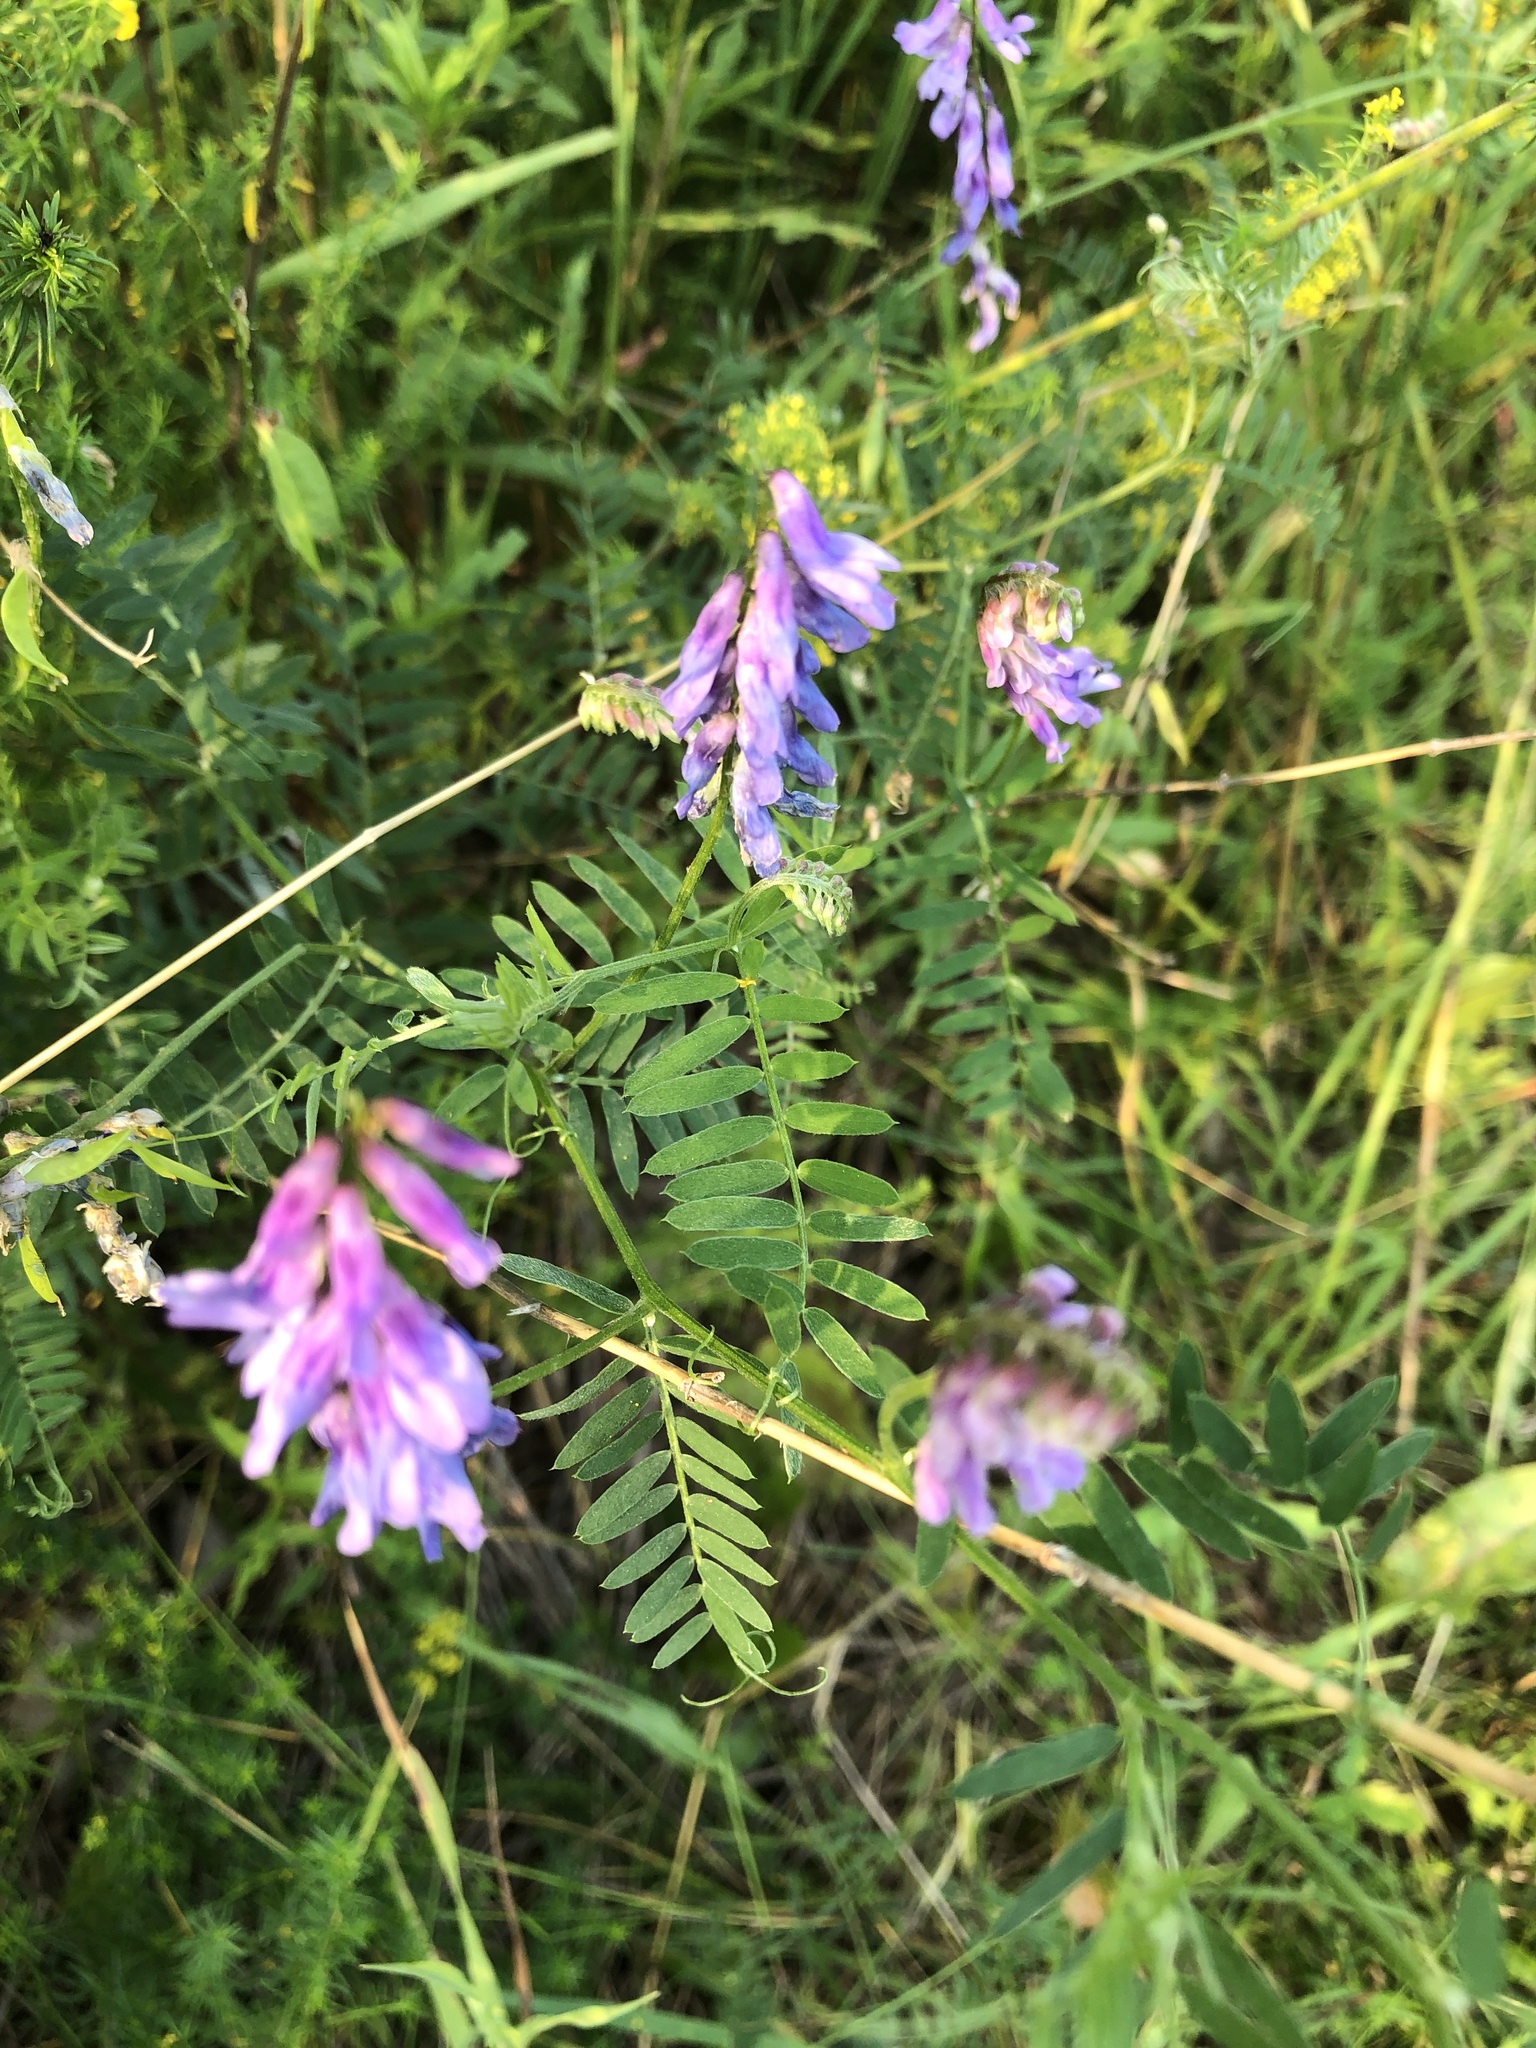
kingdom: Plantae
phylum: Tracheophyta
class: Magnoliopsida
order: Fabales
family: Fabaceae
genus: Vicia
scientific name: Vicia cracca
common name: Bird vetch
